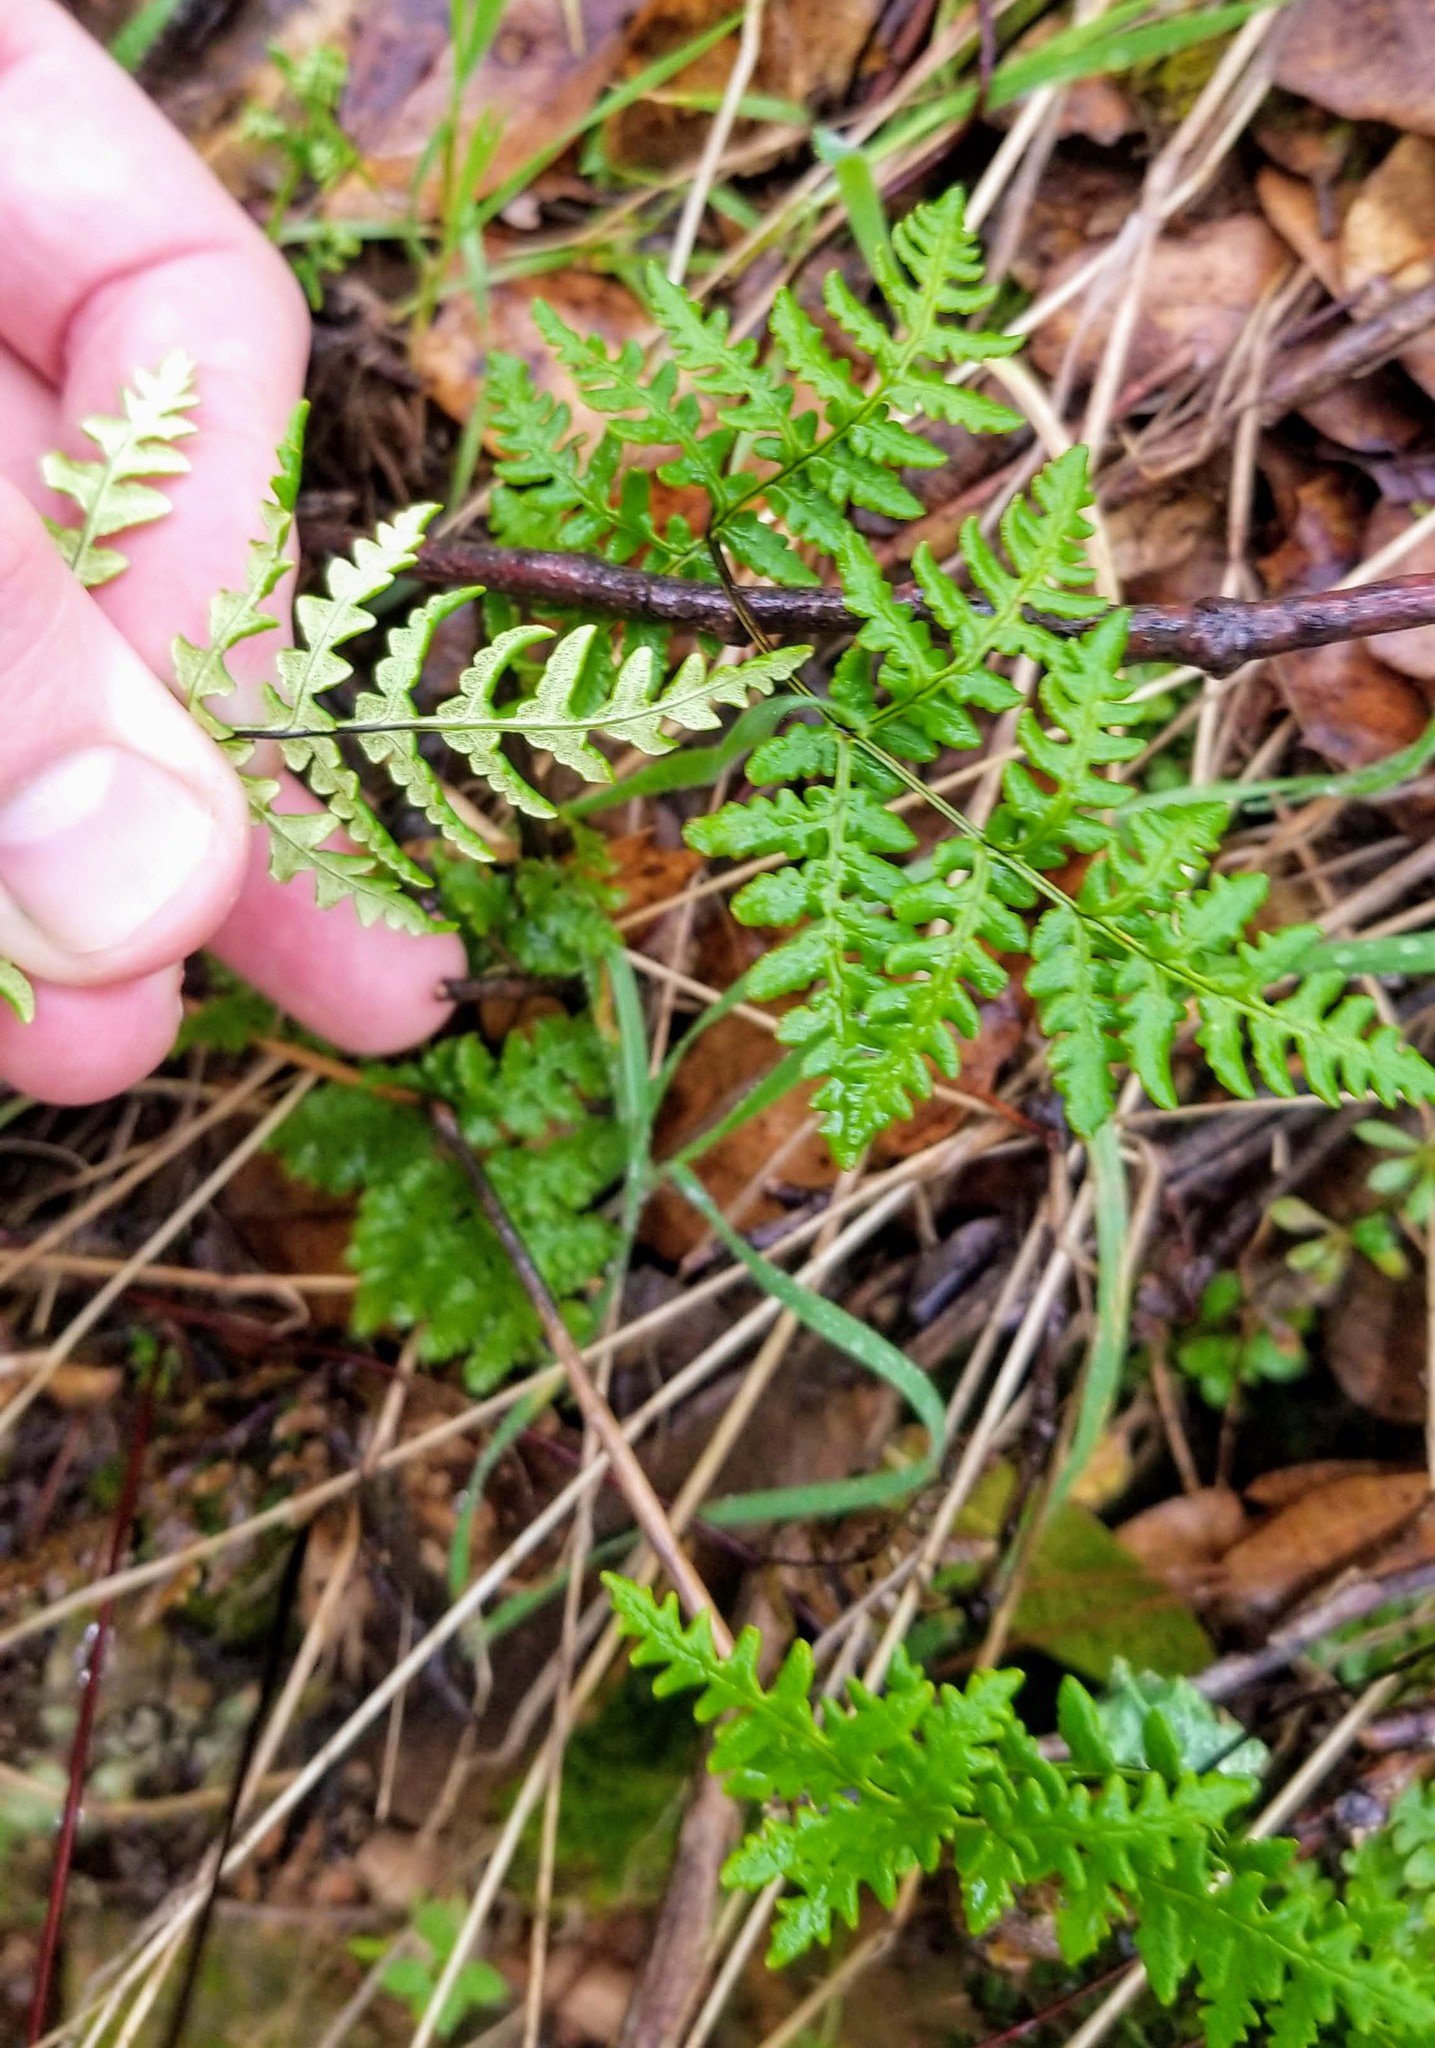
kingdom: Plantae
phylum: Tracheophyta
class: Polypodiopsida
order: Polypodiales
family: Pteridaceae
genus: Pentagramma
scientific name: Pentagramma triangularis
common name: Gold fern
